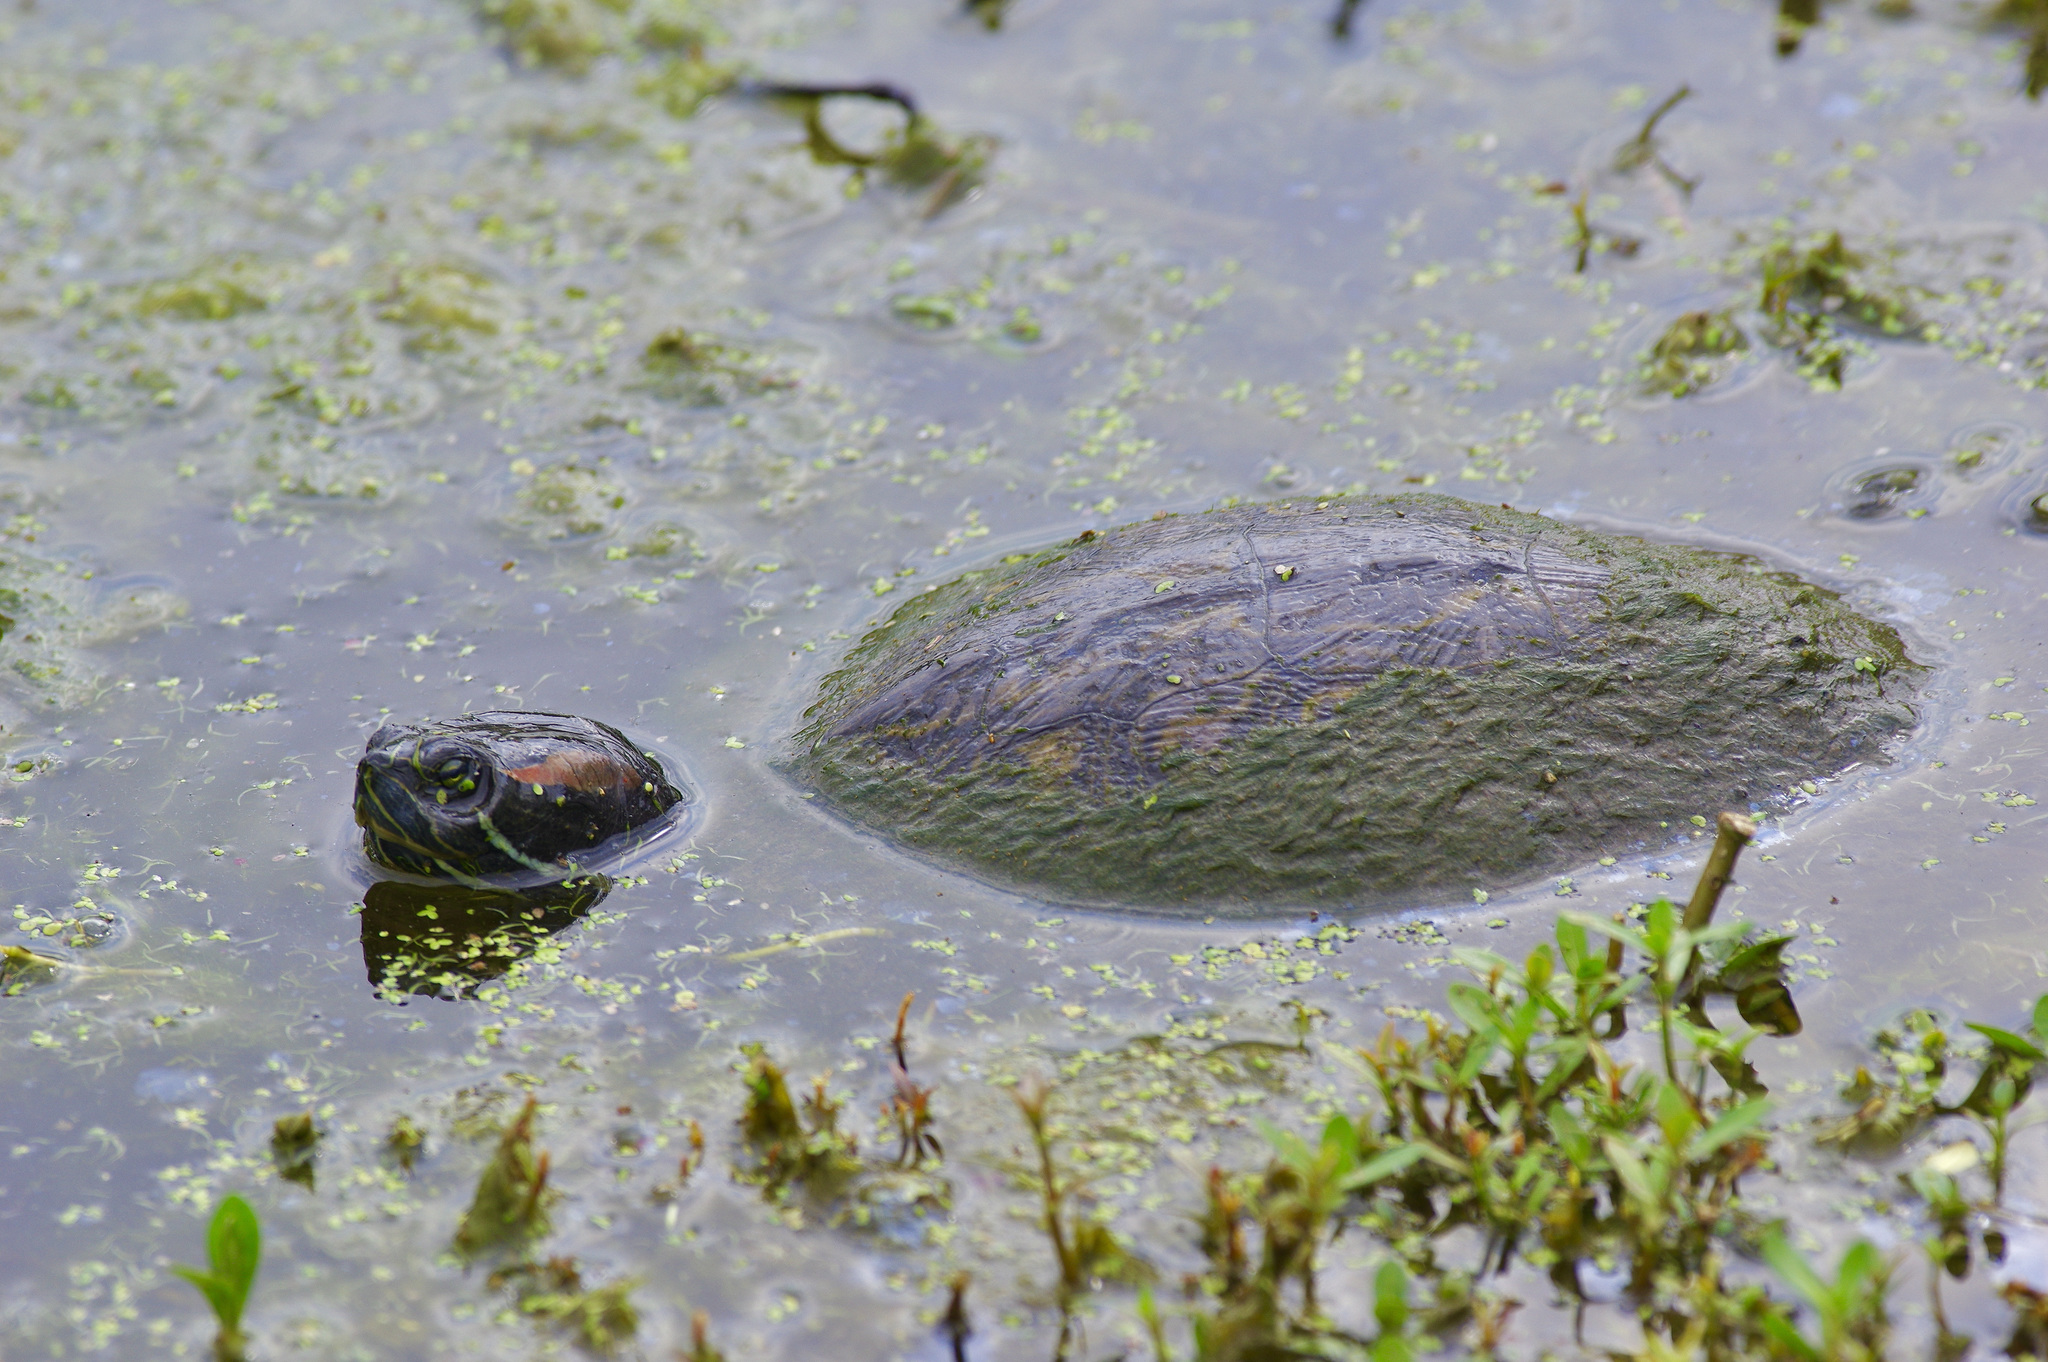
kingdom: Animalia
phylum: Chordata
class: Testudines
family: Emydidae
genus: Trachemys
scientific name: Trachemys scripta
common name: Slider
